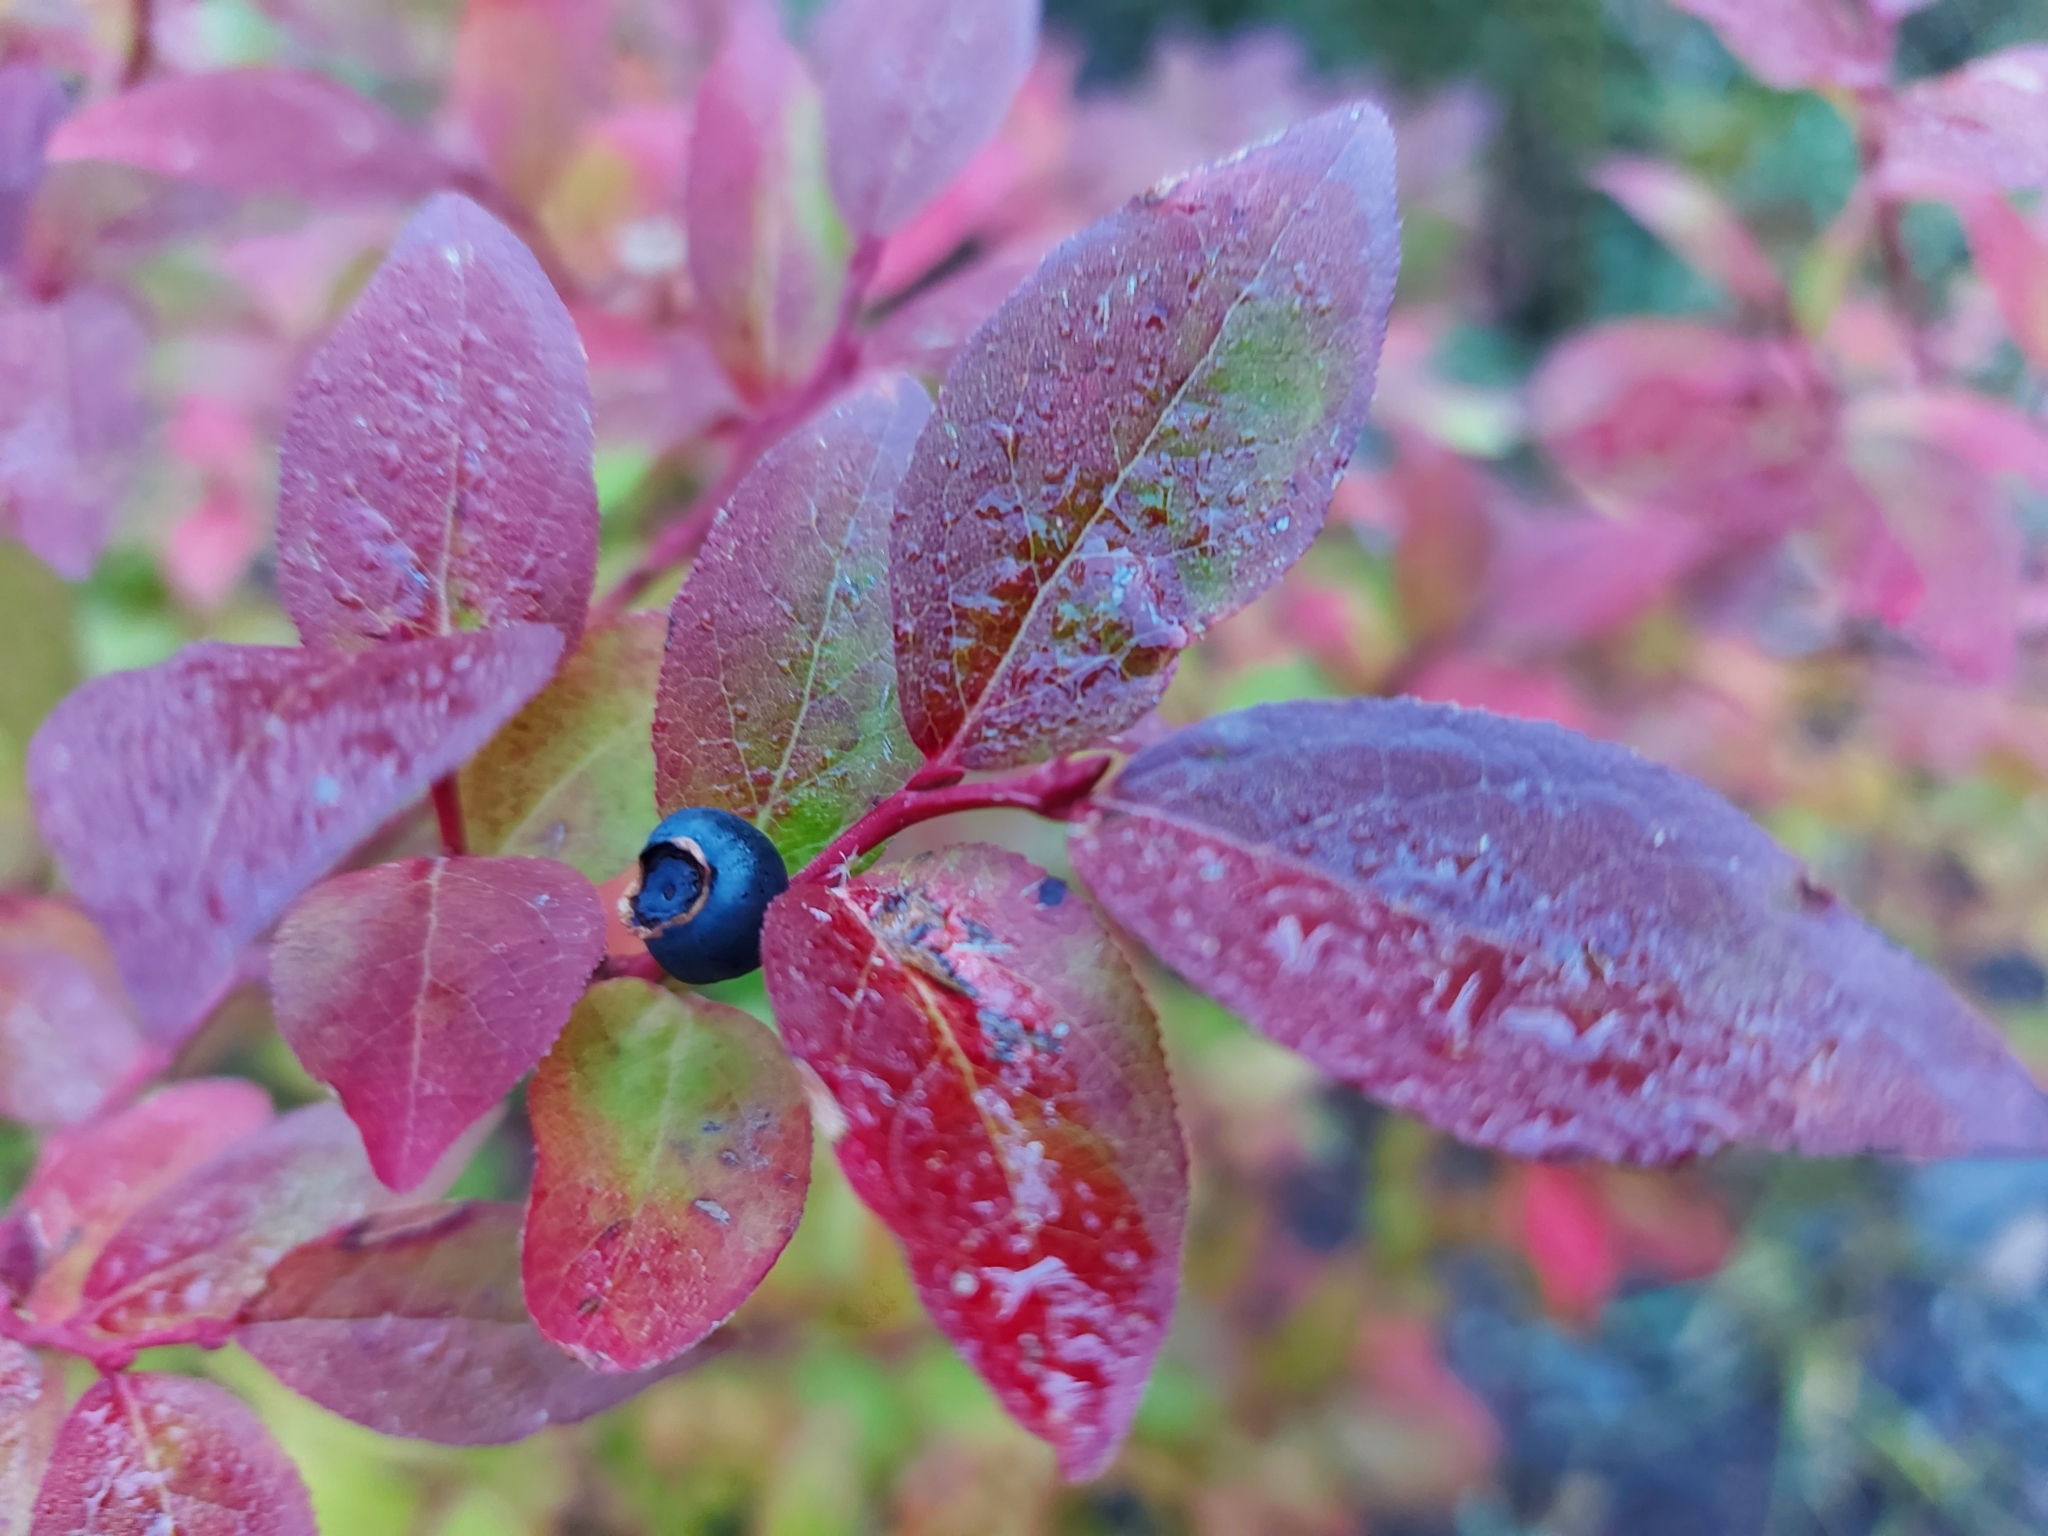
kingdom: Plantae
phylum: Tracheophyta
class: Magnoliopsida
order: Ericales
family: Ericaceae
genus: Vaccinium
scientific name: Vaccinium membranaceum
